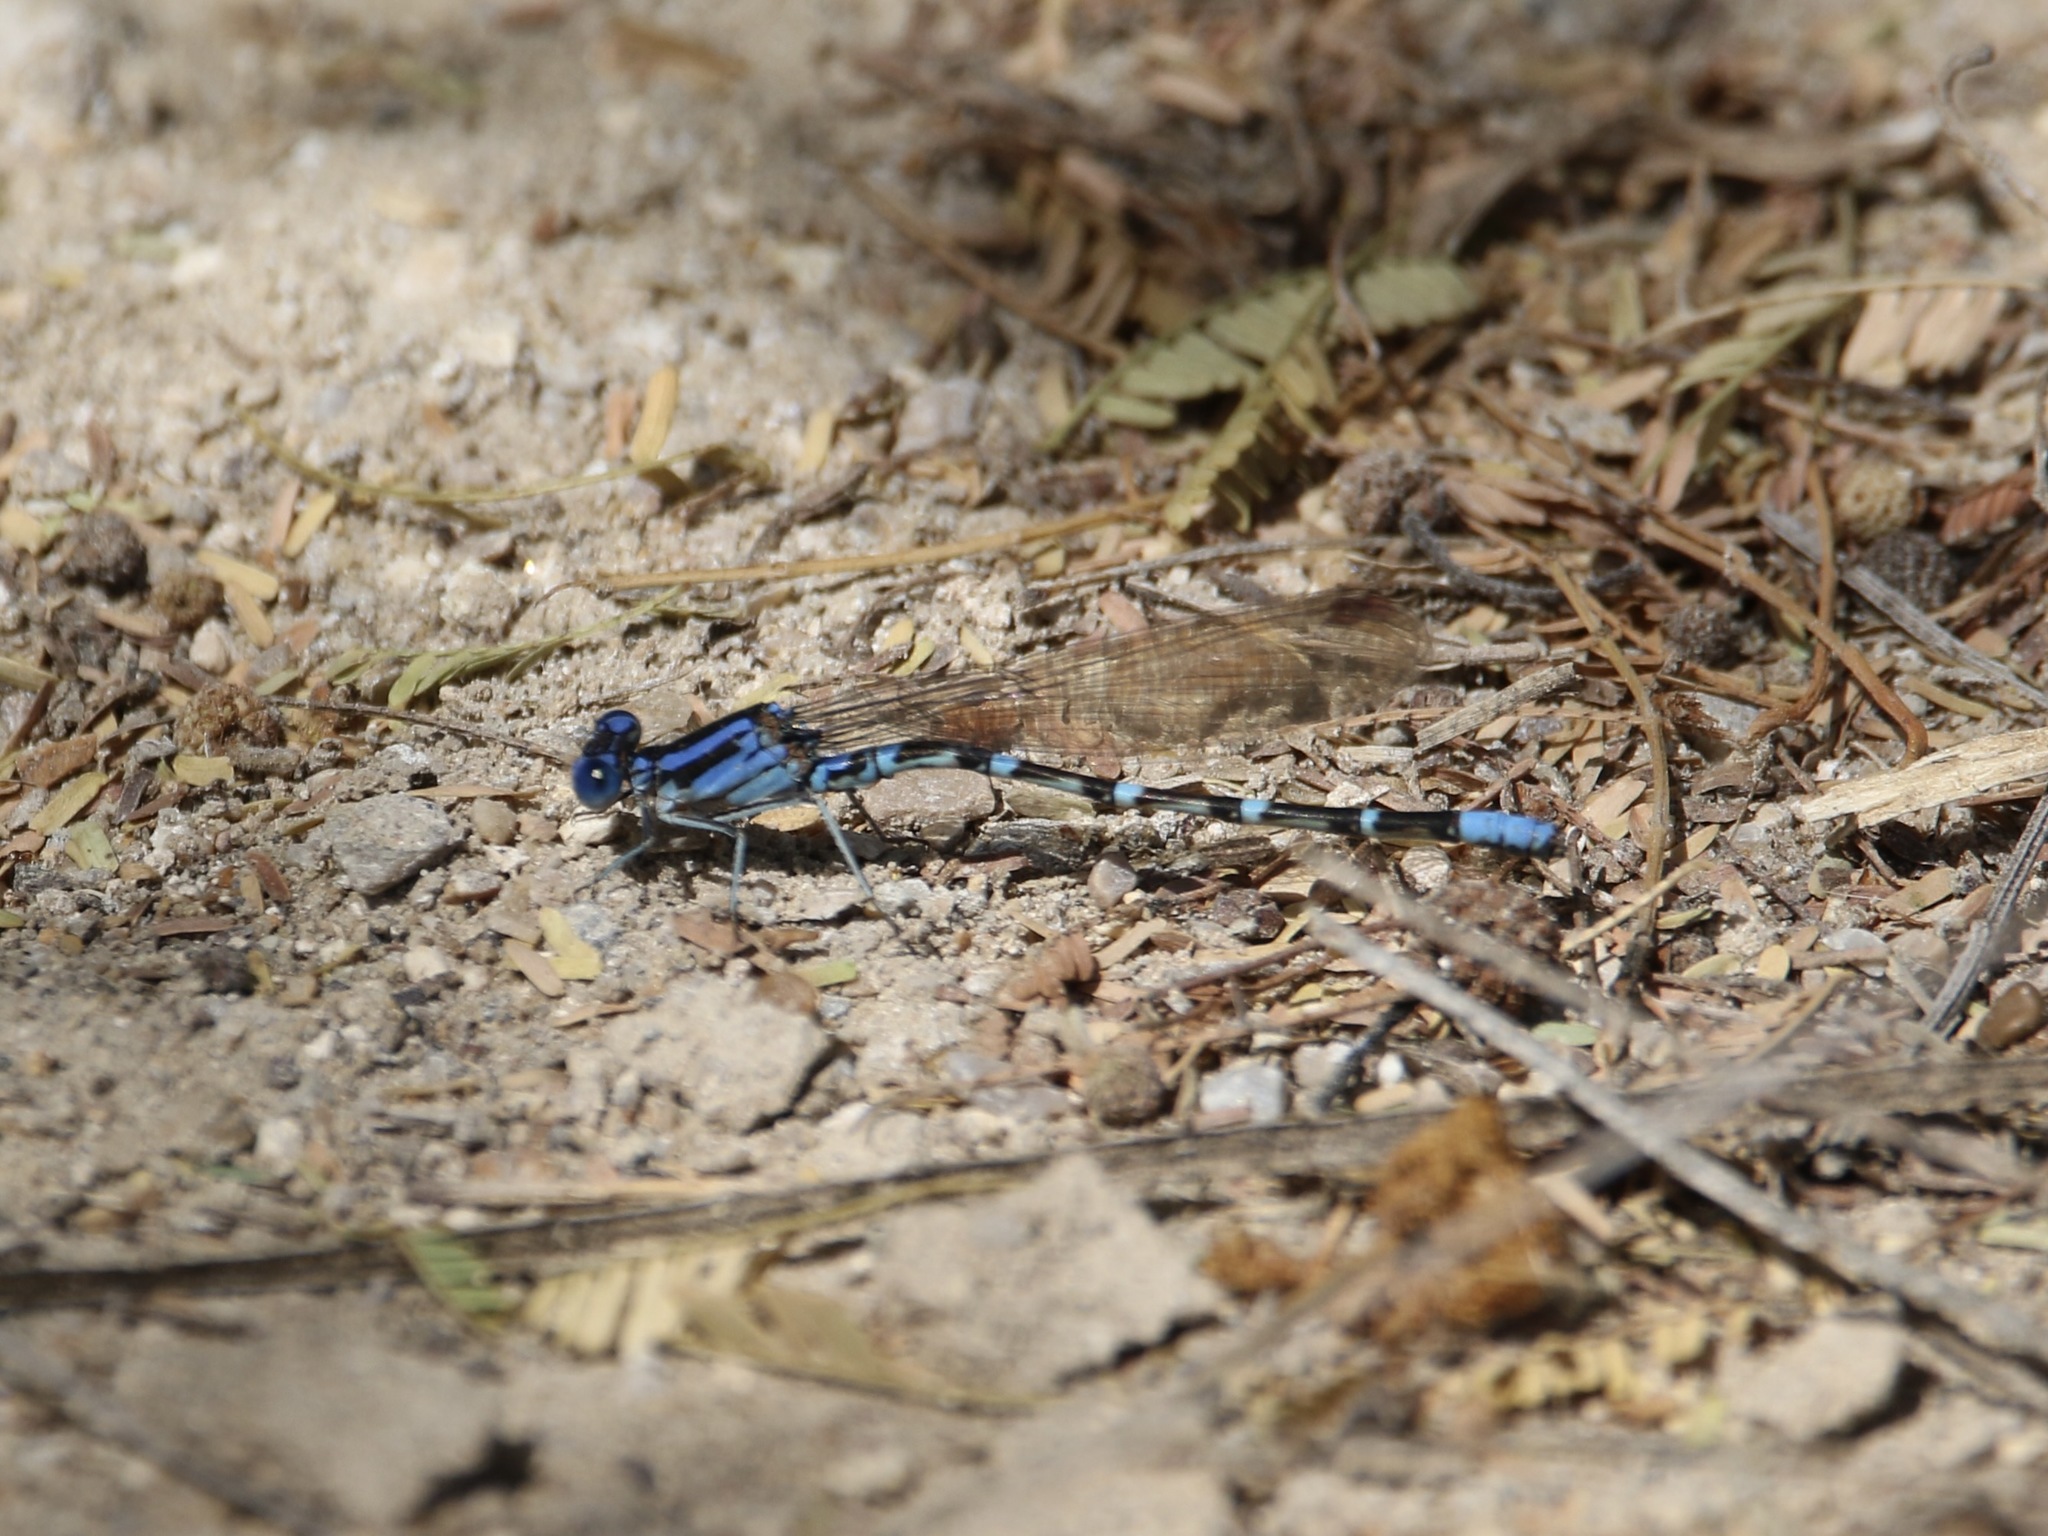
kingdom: Animalia
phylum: Arthropoda
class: Insecta
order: Odonata
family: Coenagrionidae
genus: Argia
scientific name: Argia sedula
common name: Blue-ringed dancer
